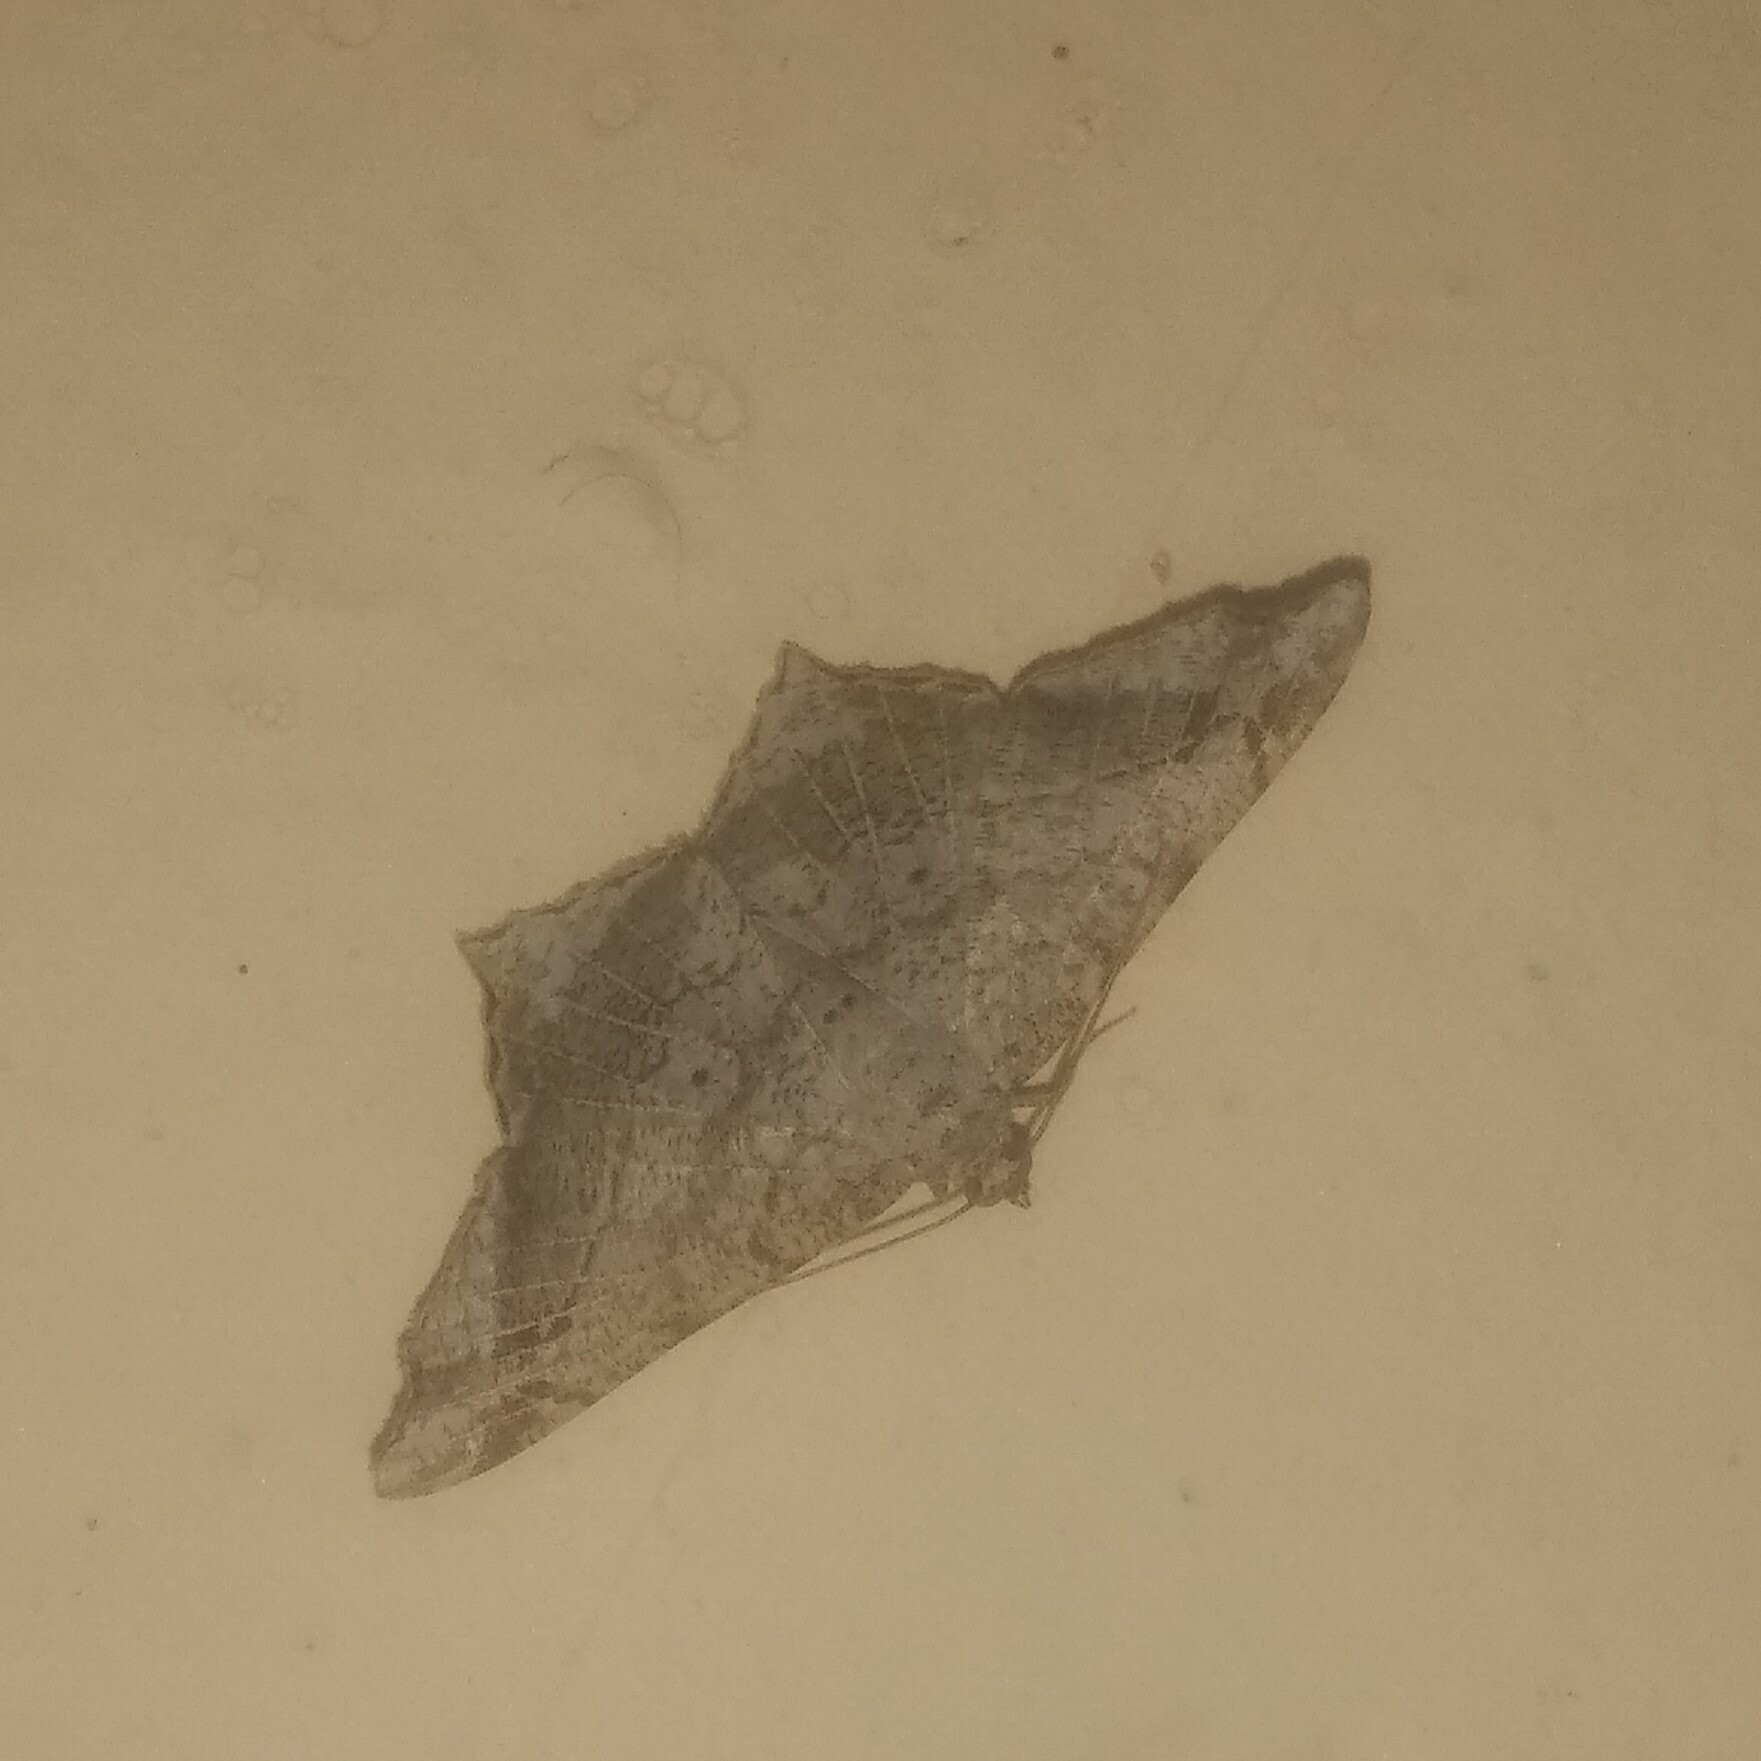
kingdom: Animalia
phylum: Arthropoda
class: Insecta
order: Lepidoptera
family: Geometridae
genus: Chiasmia
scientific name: Chiasmia emersaria
